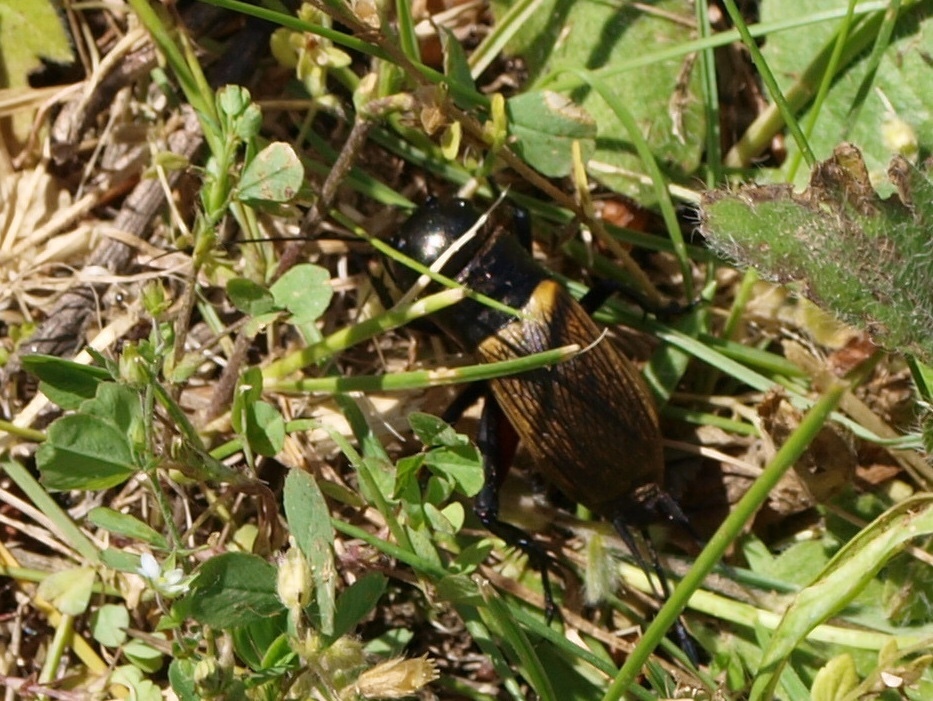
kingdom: Animalia
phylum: Arthropoda
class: Insecta
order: Orthoptera
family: Gryllidae
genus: Gryllus
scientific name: Gryllus campestris
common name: Field cricket
